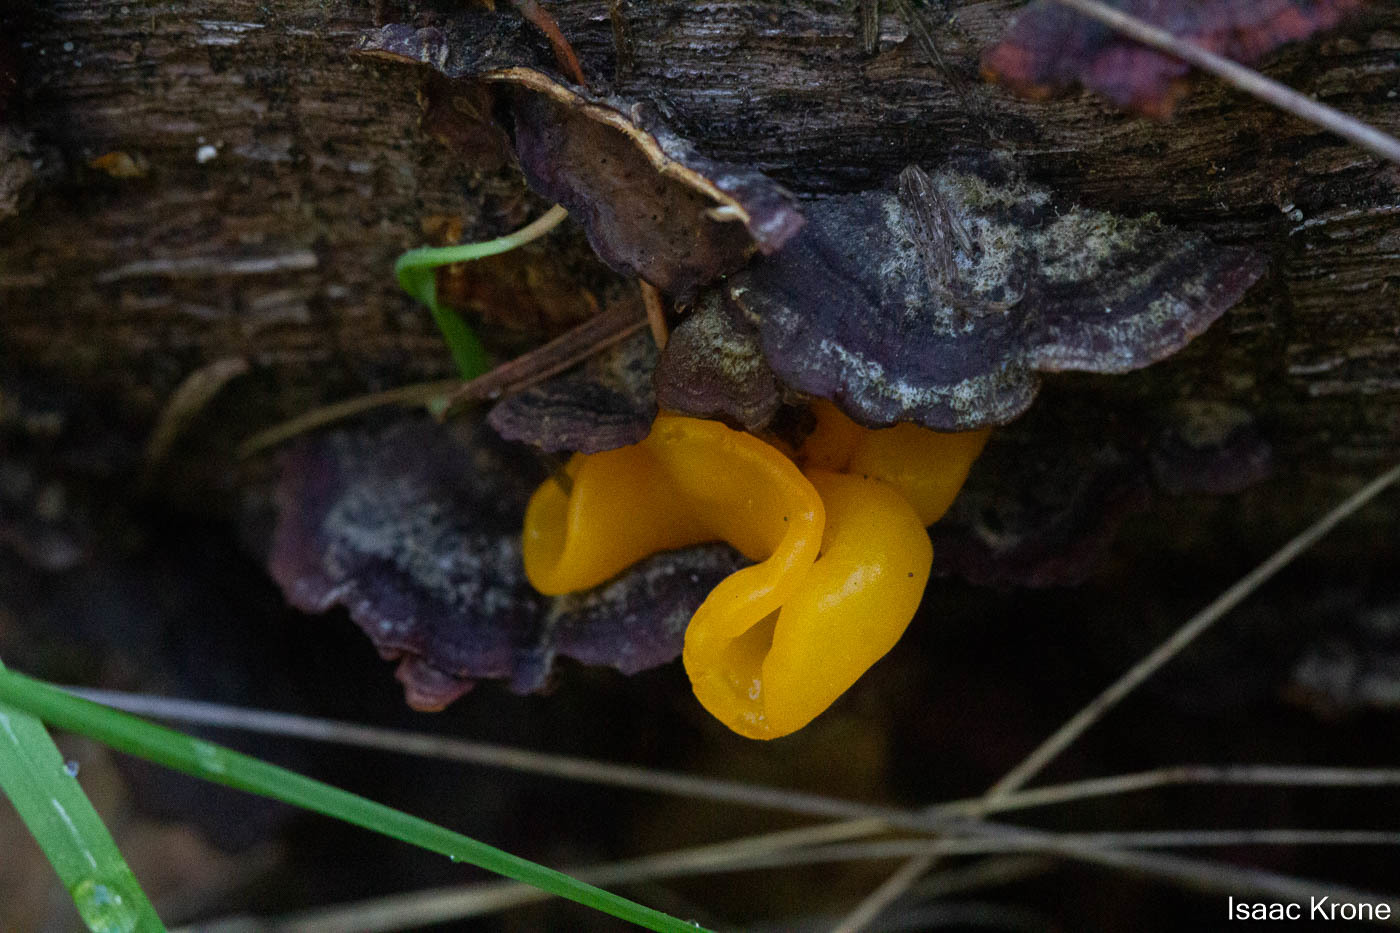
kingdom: Fungi
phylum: Basidiomycota
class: Tremellomycetes
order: Tremellales
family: Naemateliaceae
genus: Naematelia
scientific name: Naematelia aurantia
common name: Golden ear
